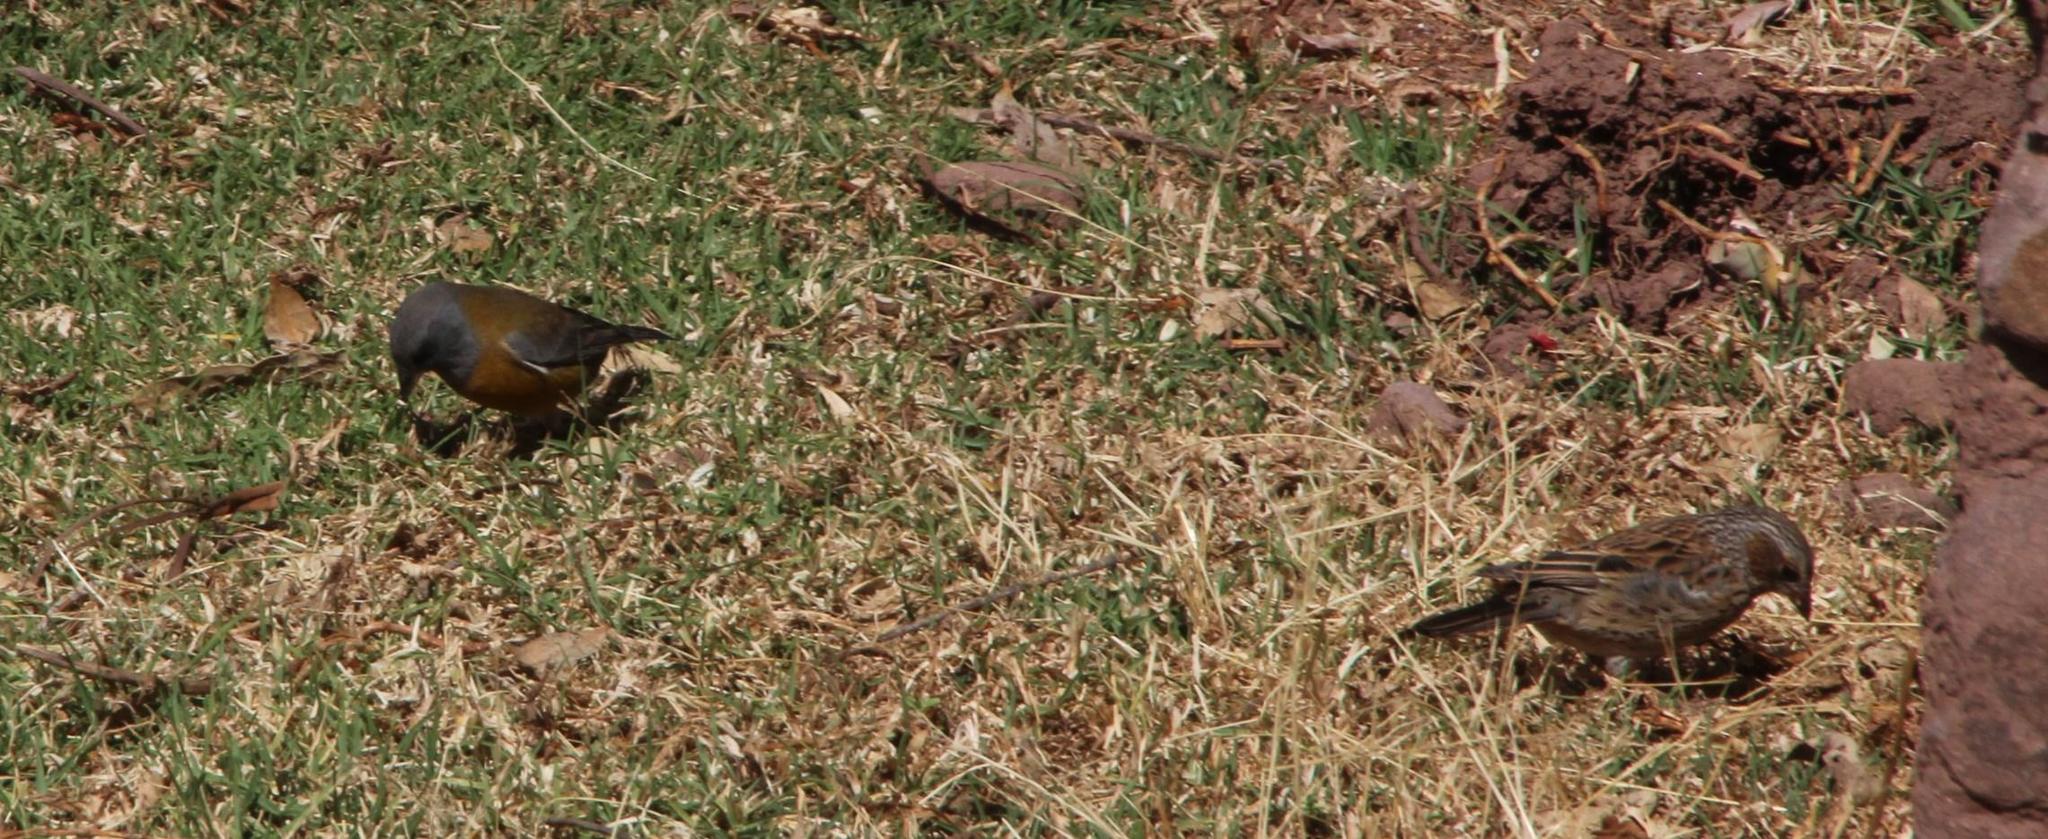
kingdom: Animalia
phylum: Chordata
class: Aves
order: Passeriformes
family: Thraupidae
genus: Phrygilus
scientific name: Phrygilus punensis
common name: Peruvian sierra finch
